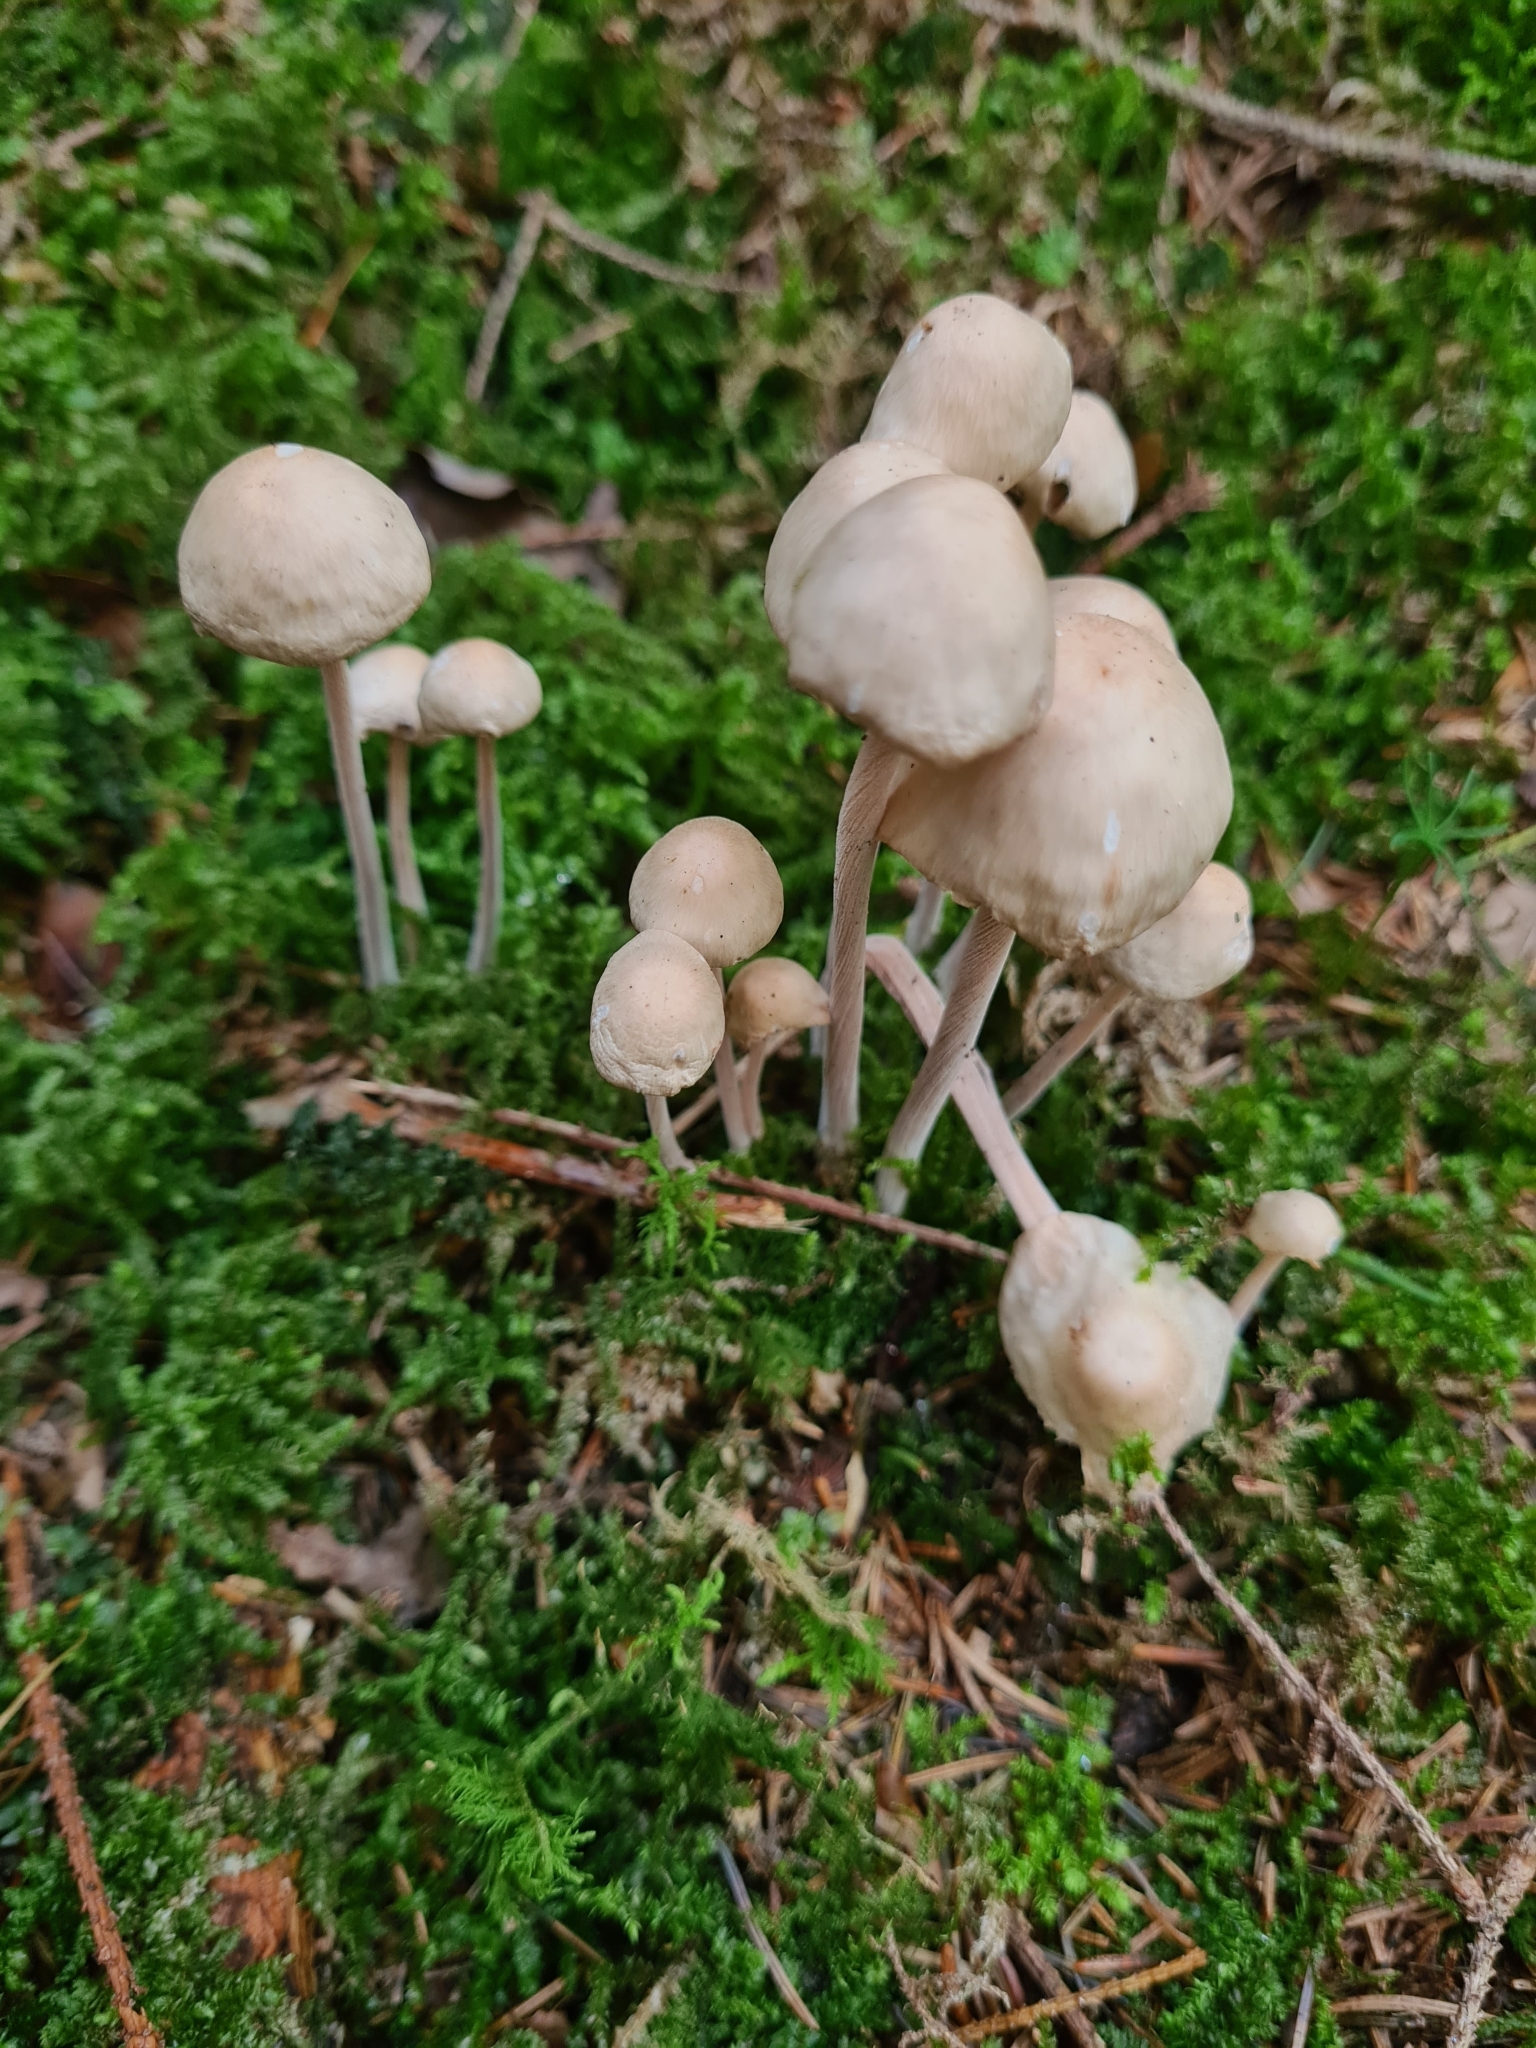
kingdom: Fungi
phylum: Basidiomycota
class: Agaricomycetes
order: Agaricales
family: Omphalotaceae
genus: Collybiopsis
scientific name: Collybiopsis confluens
